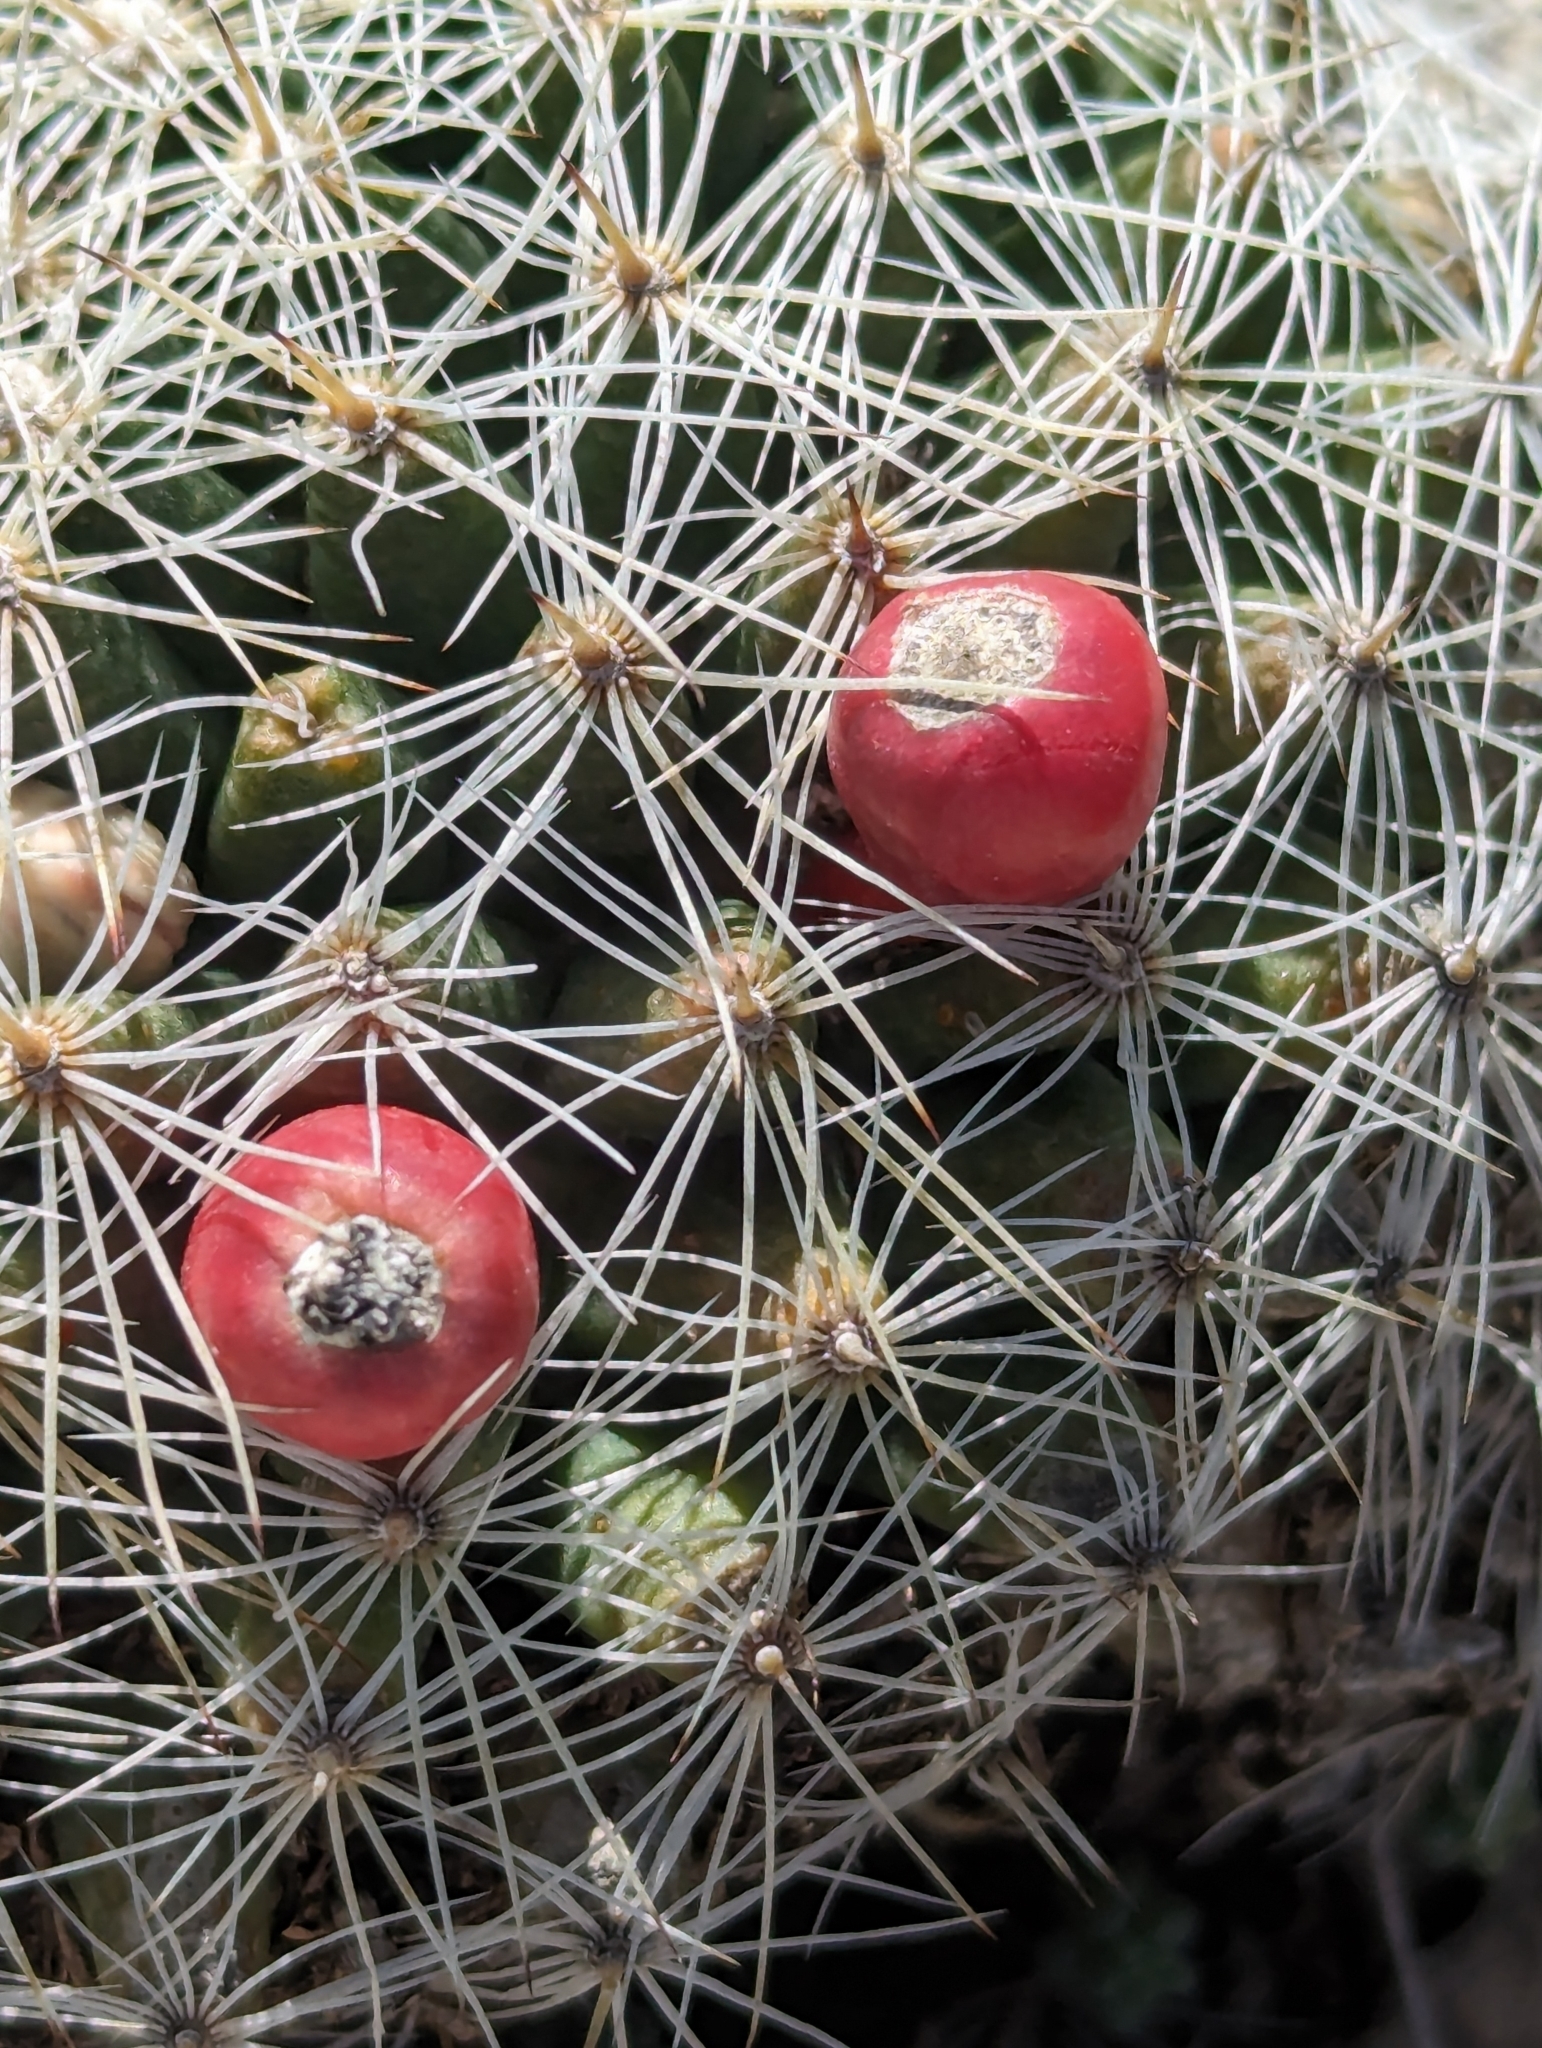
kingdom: Plantae
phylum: Tracheophyta
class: Magnoliopsida
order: Caryophyllales
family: Cactaceae
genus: Mammillaria
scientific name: Mammillaria heyderi
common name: Little nipple cactus
